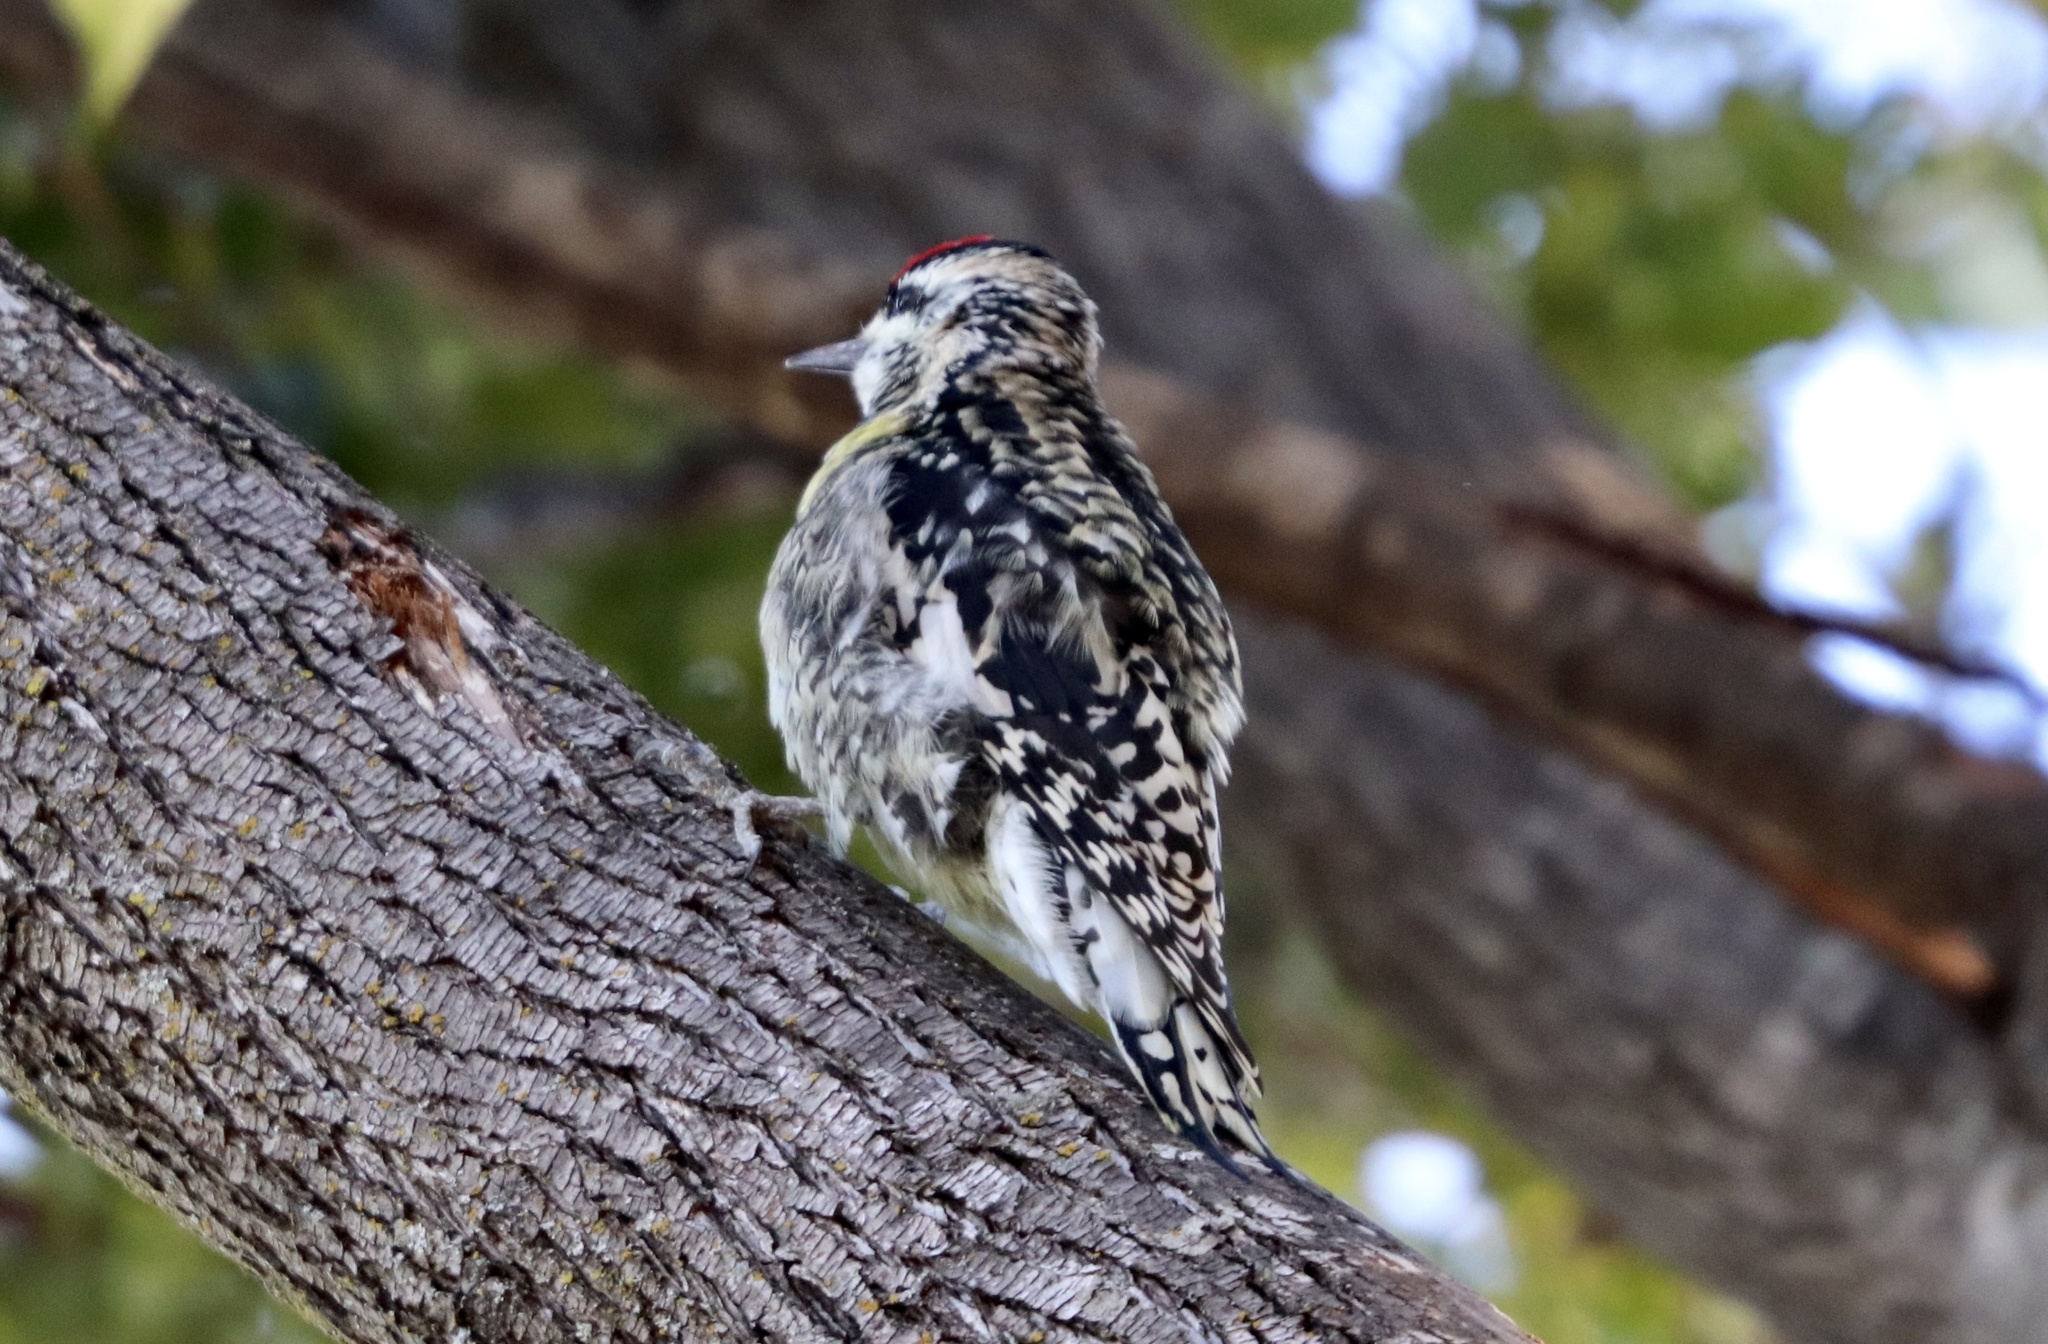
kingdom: Animalia
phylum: Chordata
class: Aves
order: Piciformes
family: Picidae
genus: Sphyrapicus
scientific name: Sphyrapicus varius
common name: Yellow-bellied sapsucker
